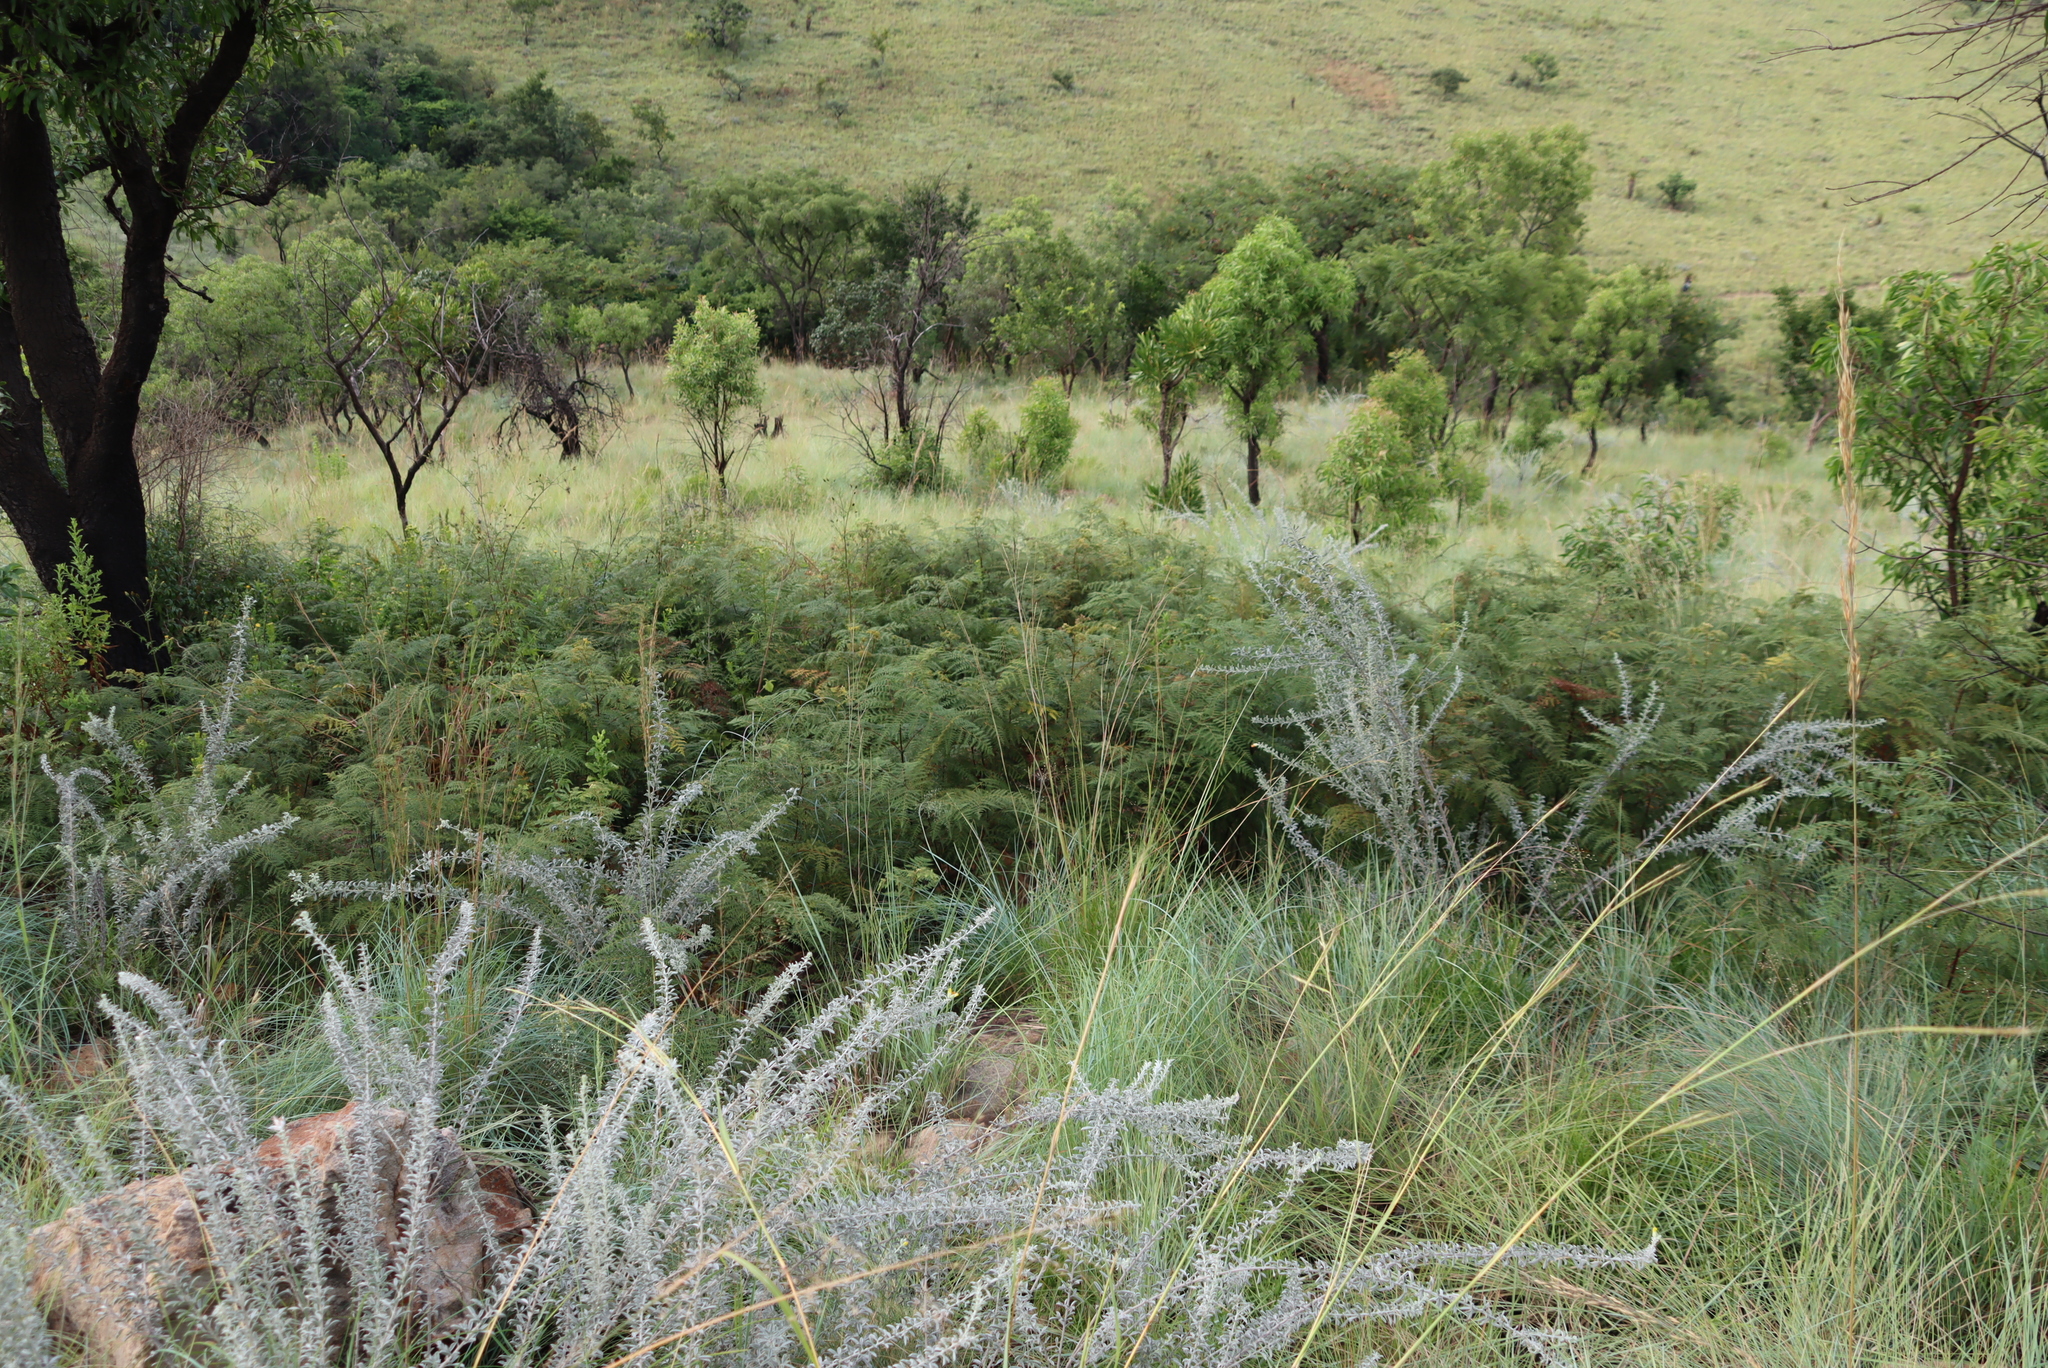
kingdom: Plantae
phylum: Tracheophyta
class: Polypodiopsida
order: Polypodiales
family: Dennstaedtiaceae
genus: Pteridium
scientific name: Pteridium aquilinum
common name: Bracken
